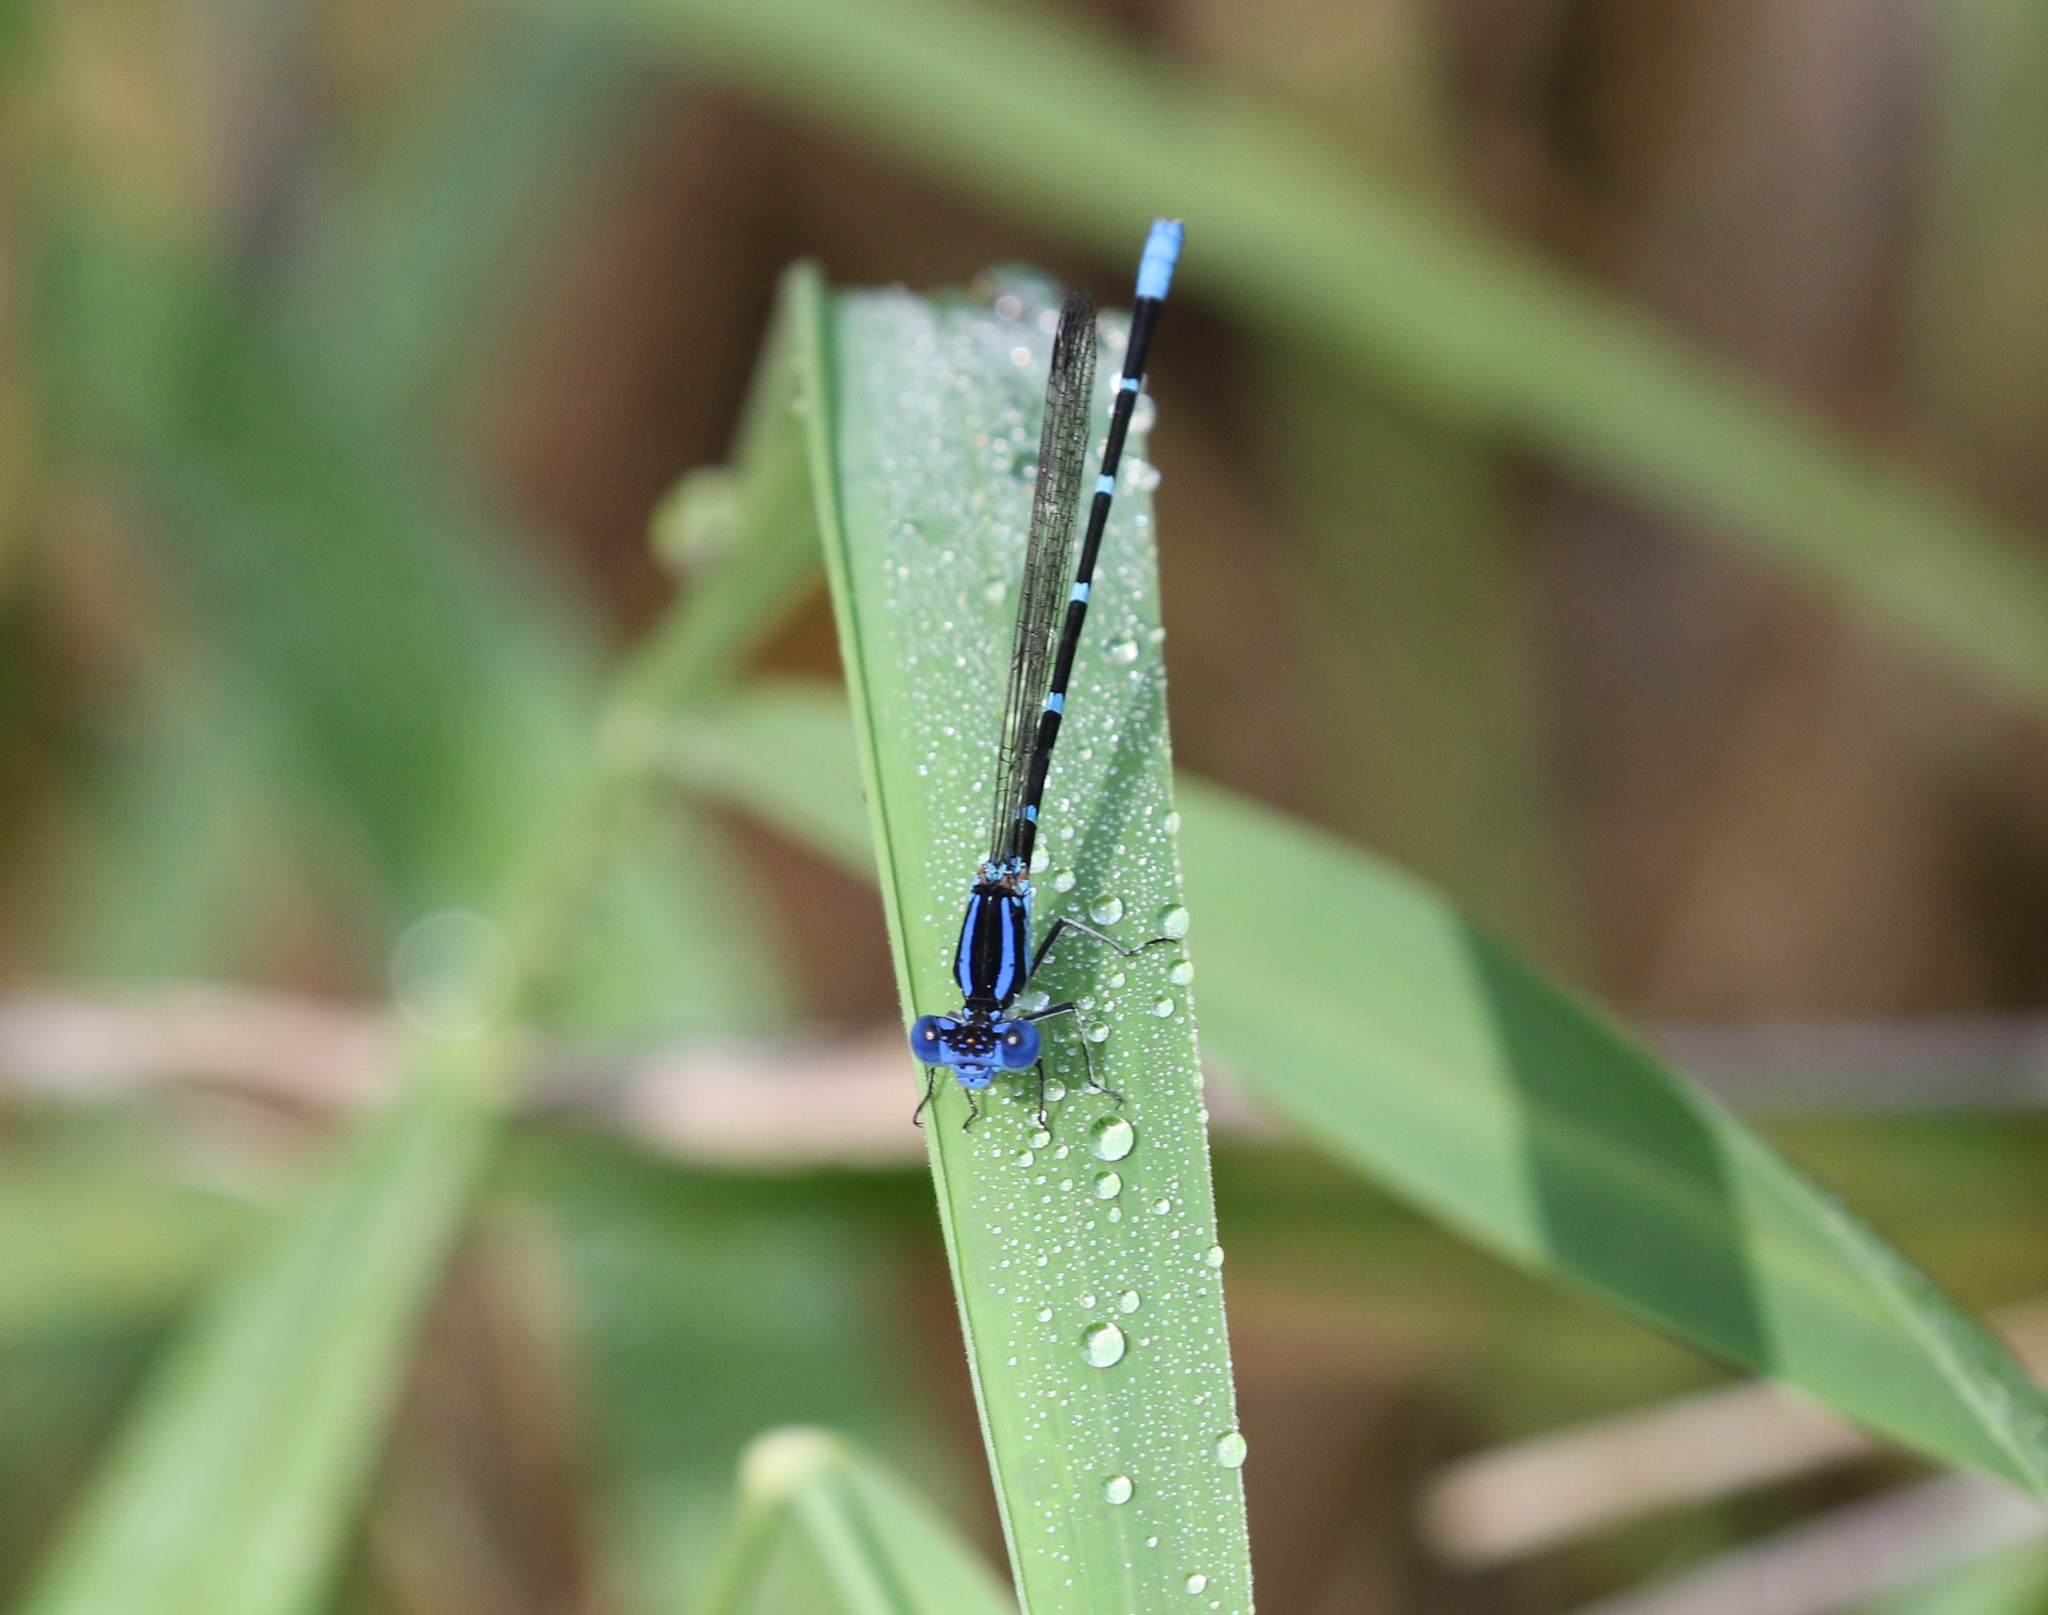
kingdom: Animalia
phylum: Arthropoda
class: Insecta
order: Odonata
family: Coenagrionidae
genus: Argia
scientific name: Argia sedula
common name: Blue-ringed dancer
